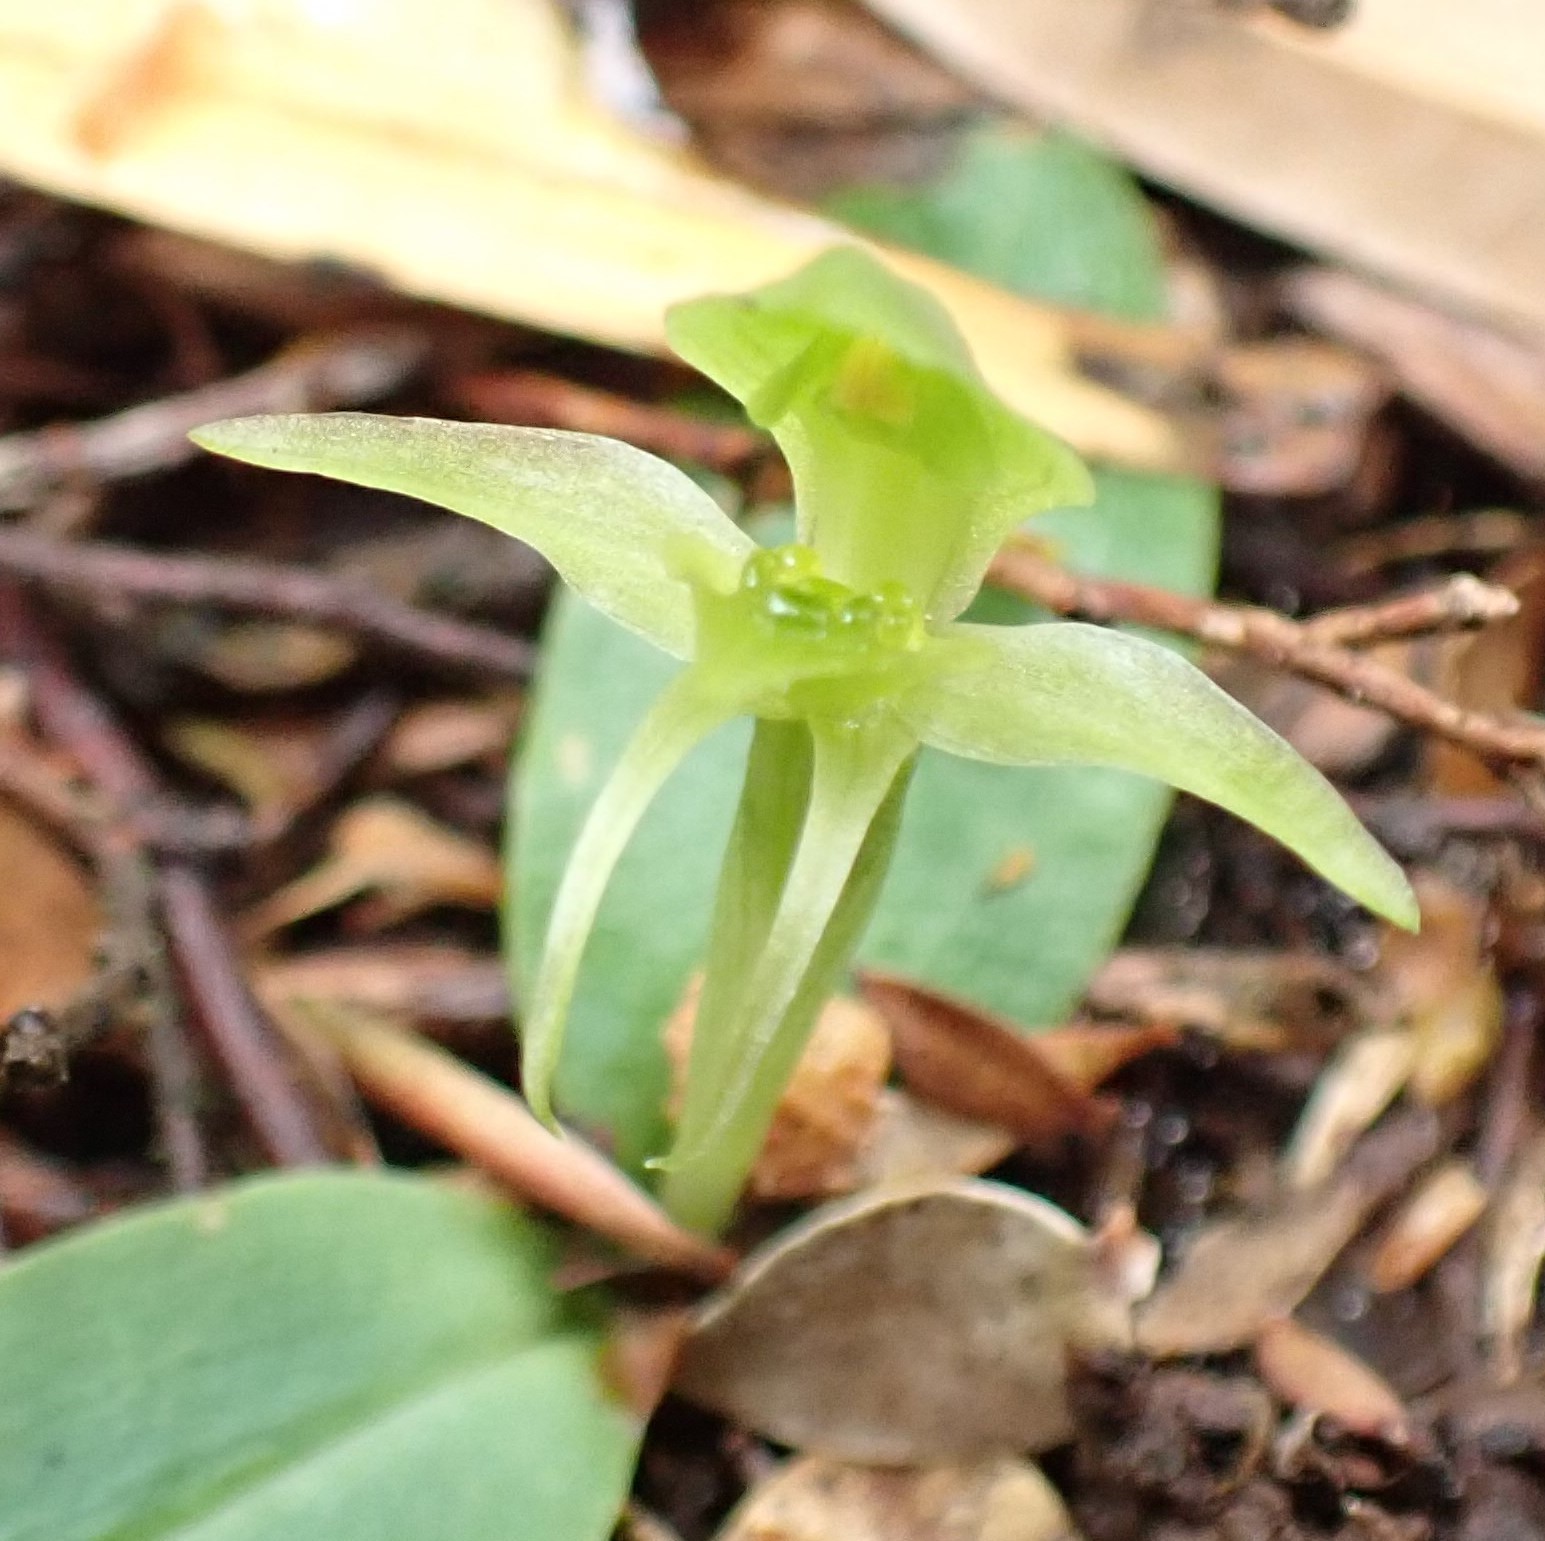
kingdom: Plantae
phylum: Tracheophyta
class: Liliopsida
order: Asparagales
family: Orchidaceae
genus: Chiloglottis
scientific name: Chiloglottis cornuta
